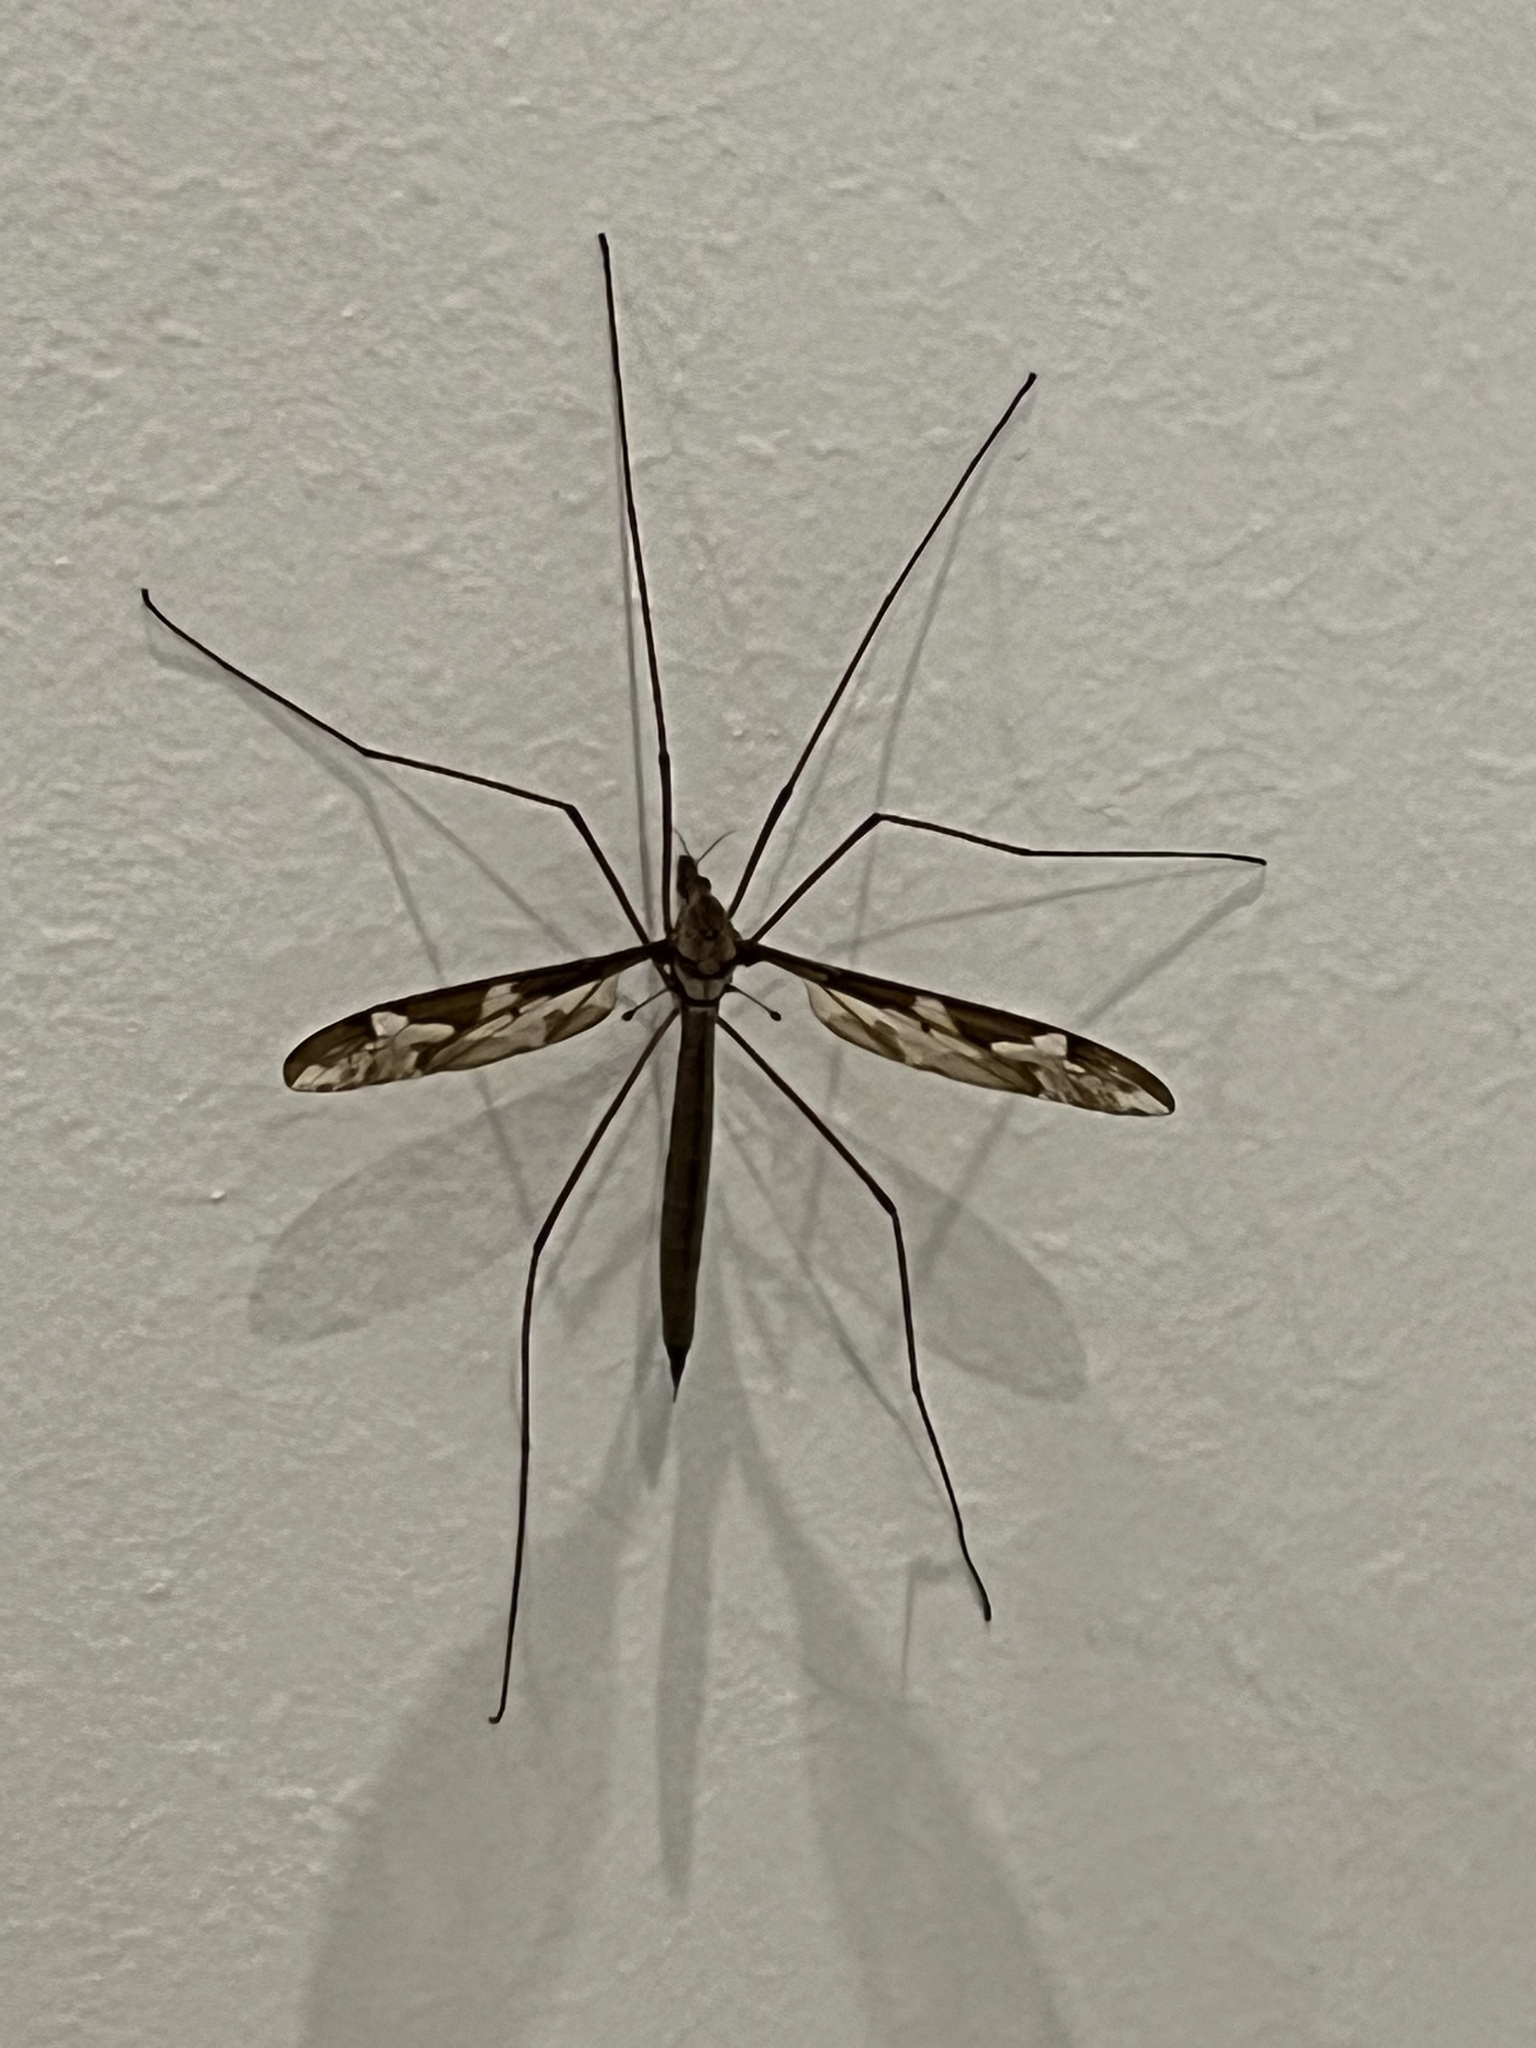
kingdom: Animalia
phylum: Arthropoda
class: Insecta
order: Diptera
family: Tipulidae
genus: Acutipula
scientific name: Acutipula
